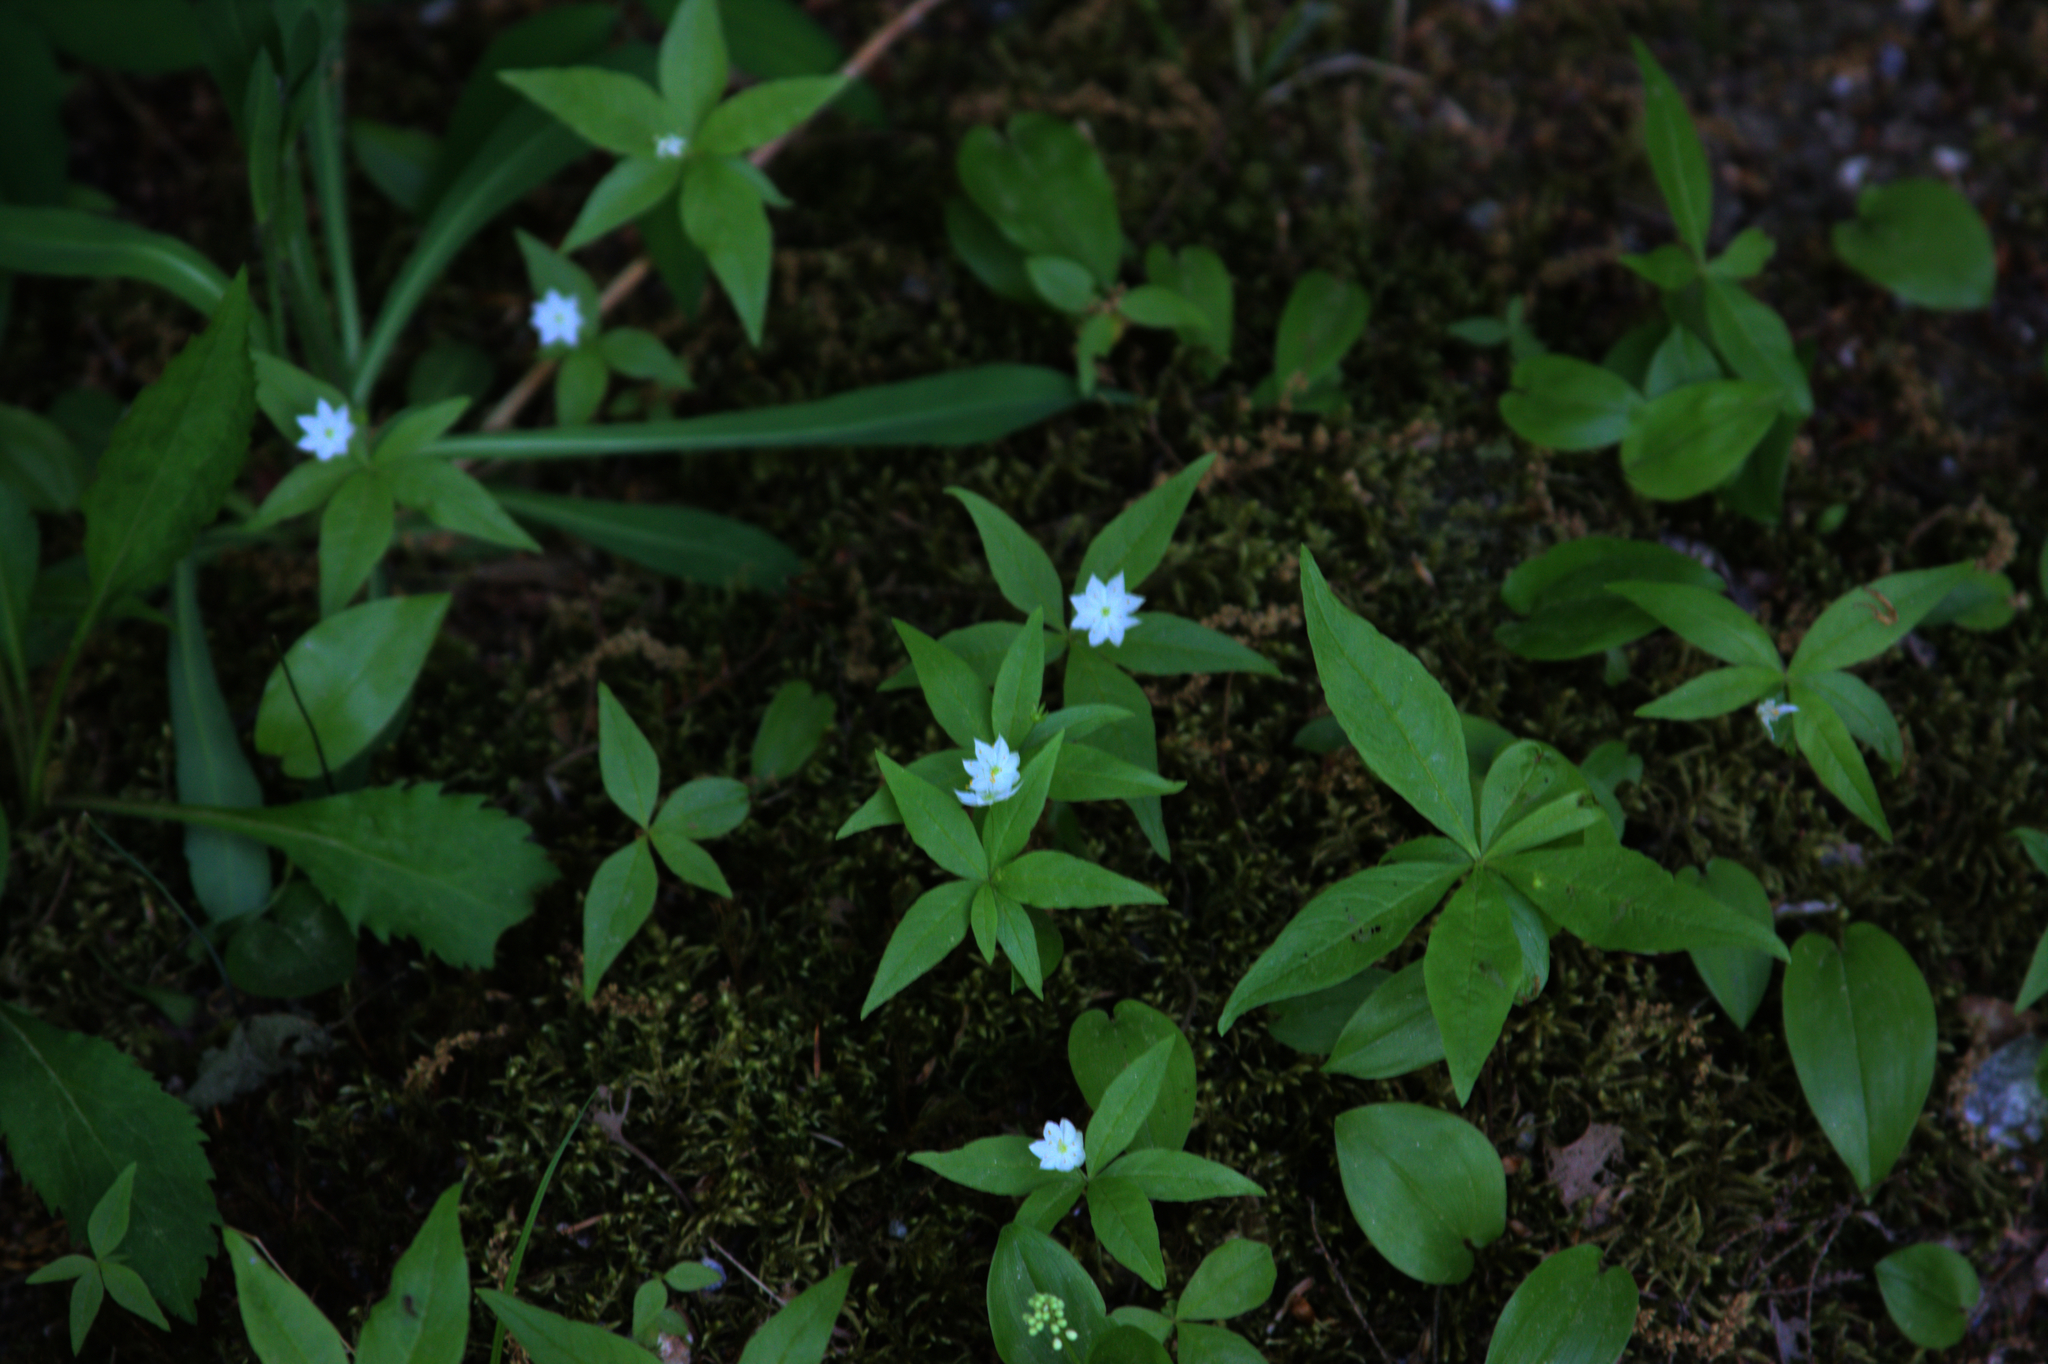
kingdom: Plantae
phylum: Tracheophyta
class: Liliopsida
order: Asparagales
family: Asparagaceae
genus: Maianthemum
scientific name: Maianthemum canadense
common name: False lily-of-the-valley
